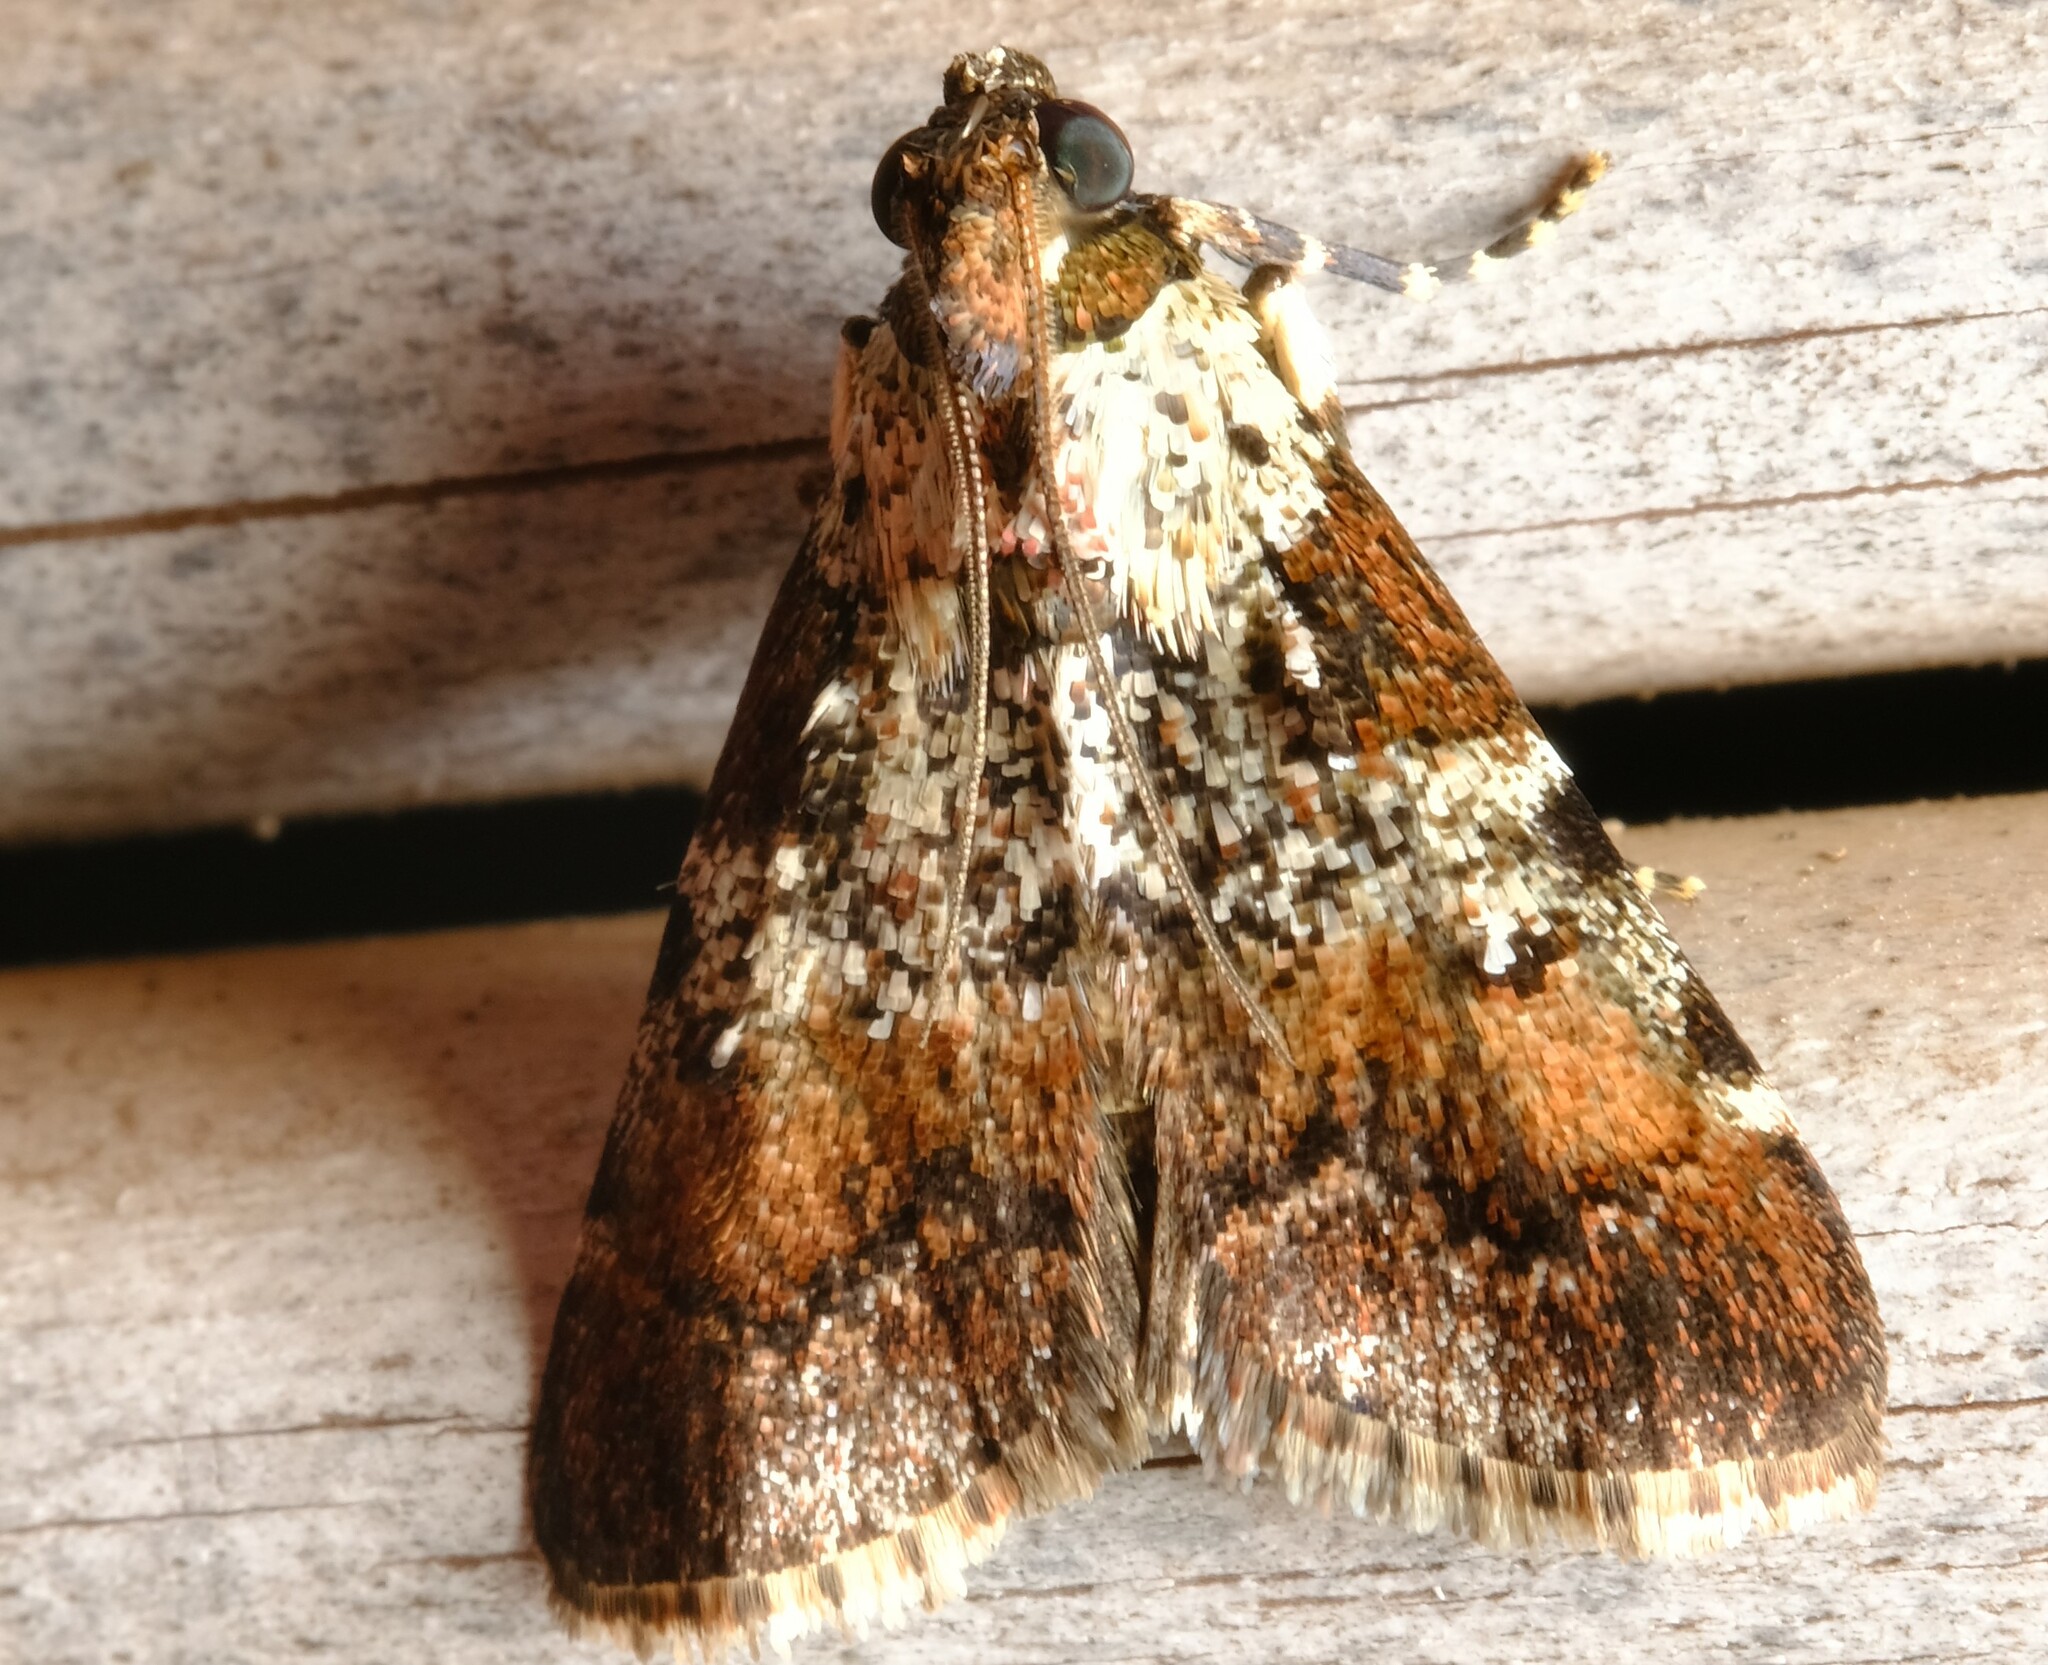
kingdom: Animalia
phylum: Arthropoda
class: Insecta
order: Lepidoptera
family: Pyralidae
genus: Orthaga
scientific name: Orthaga rubridiscalis
